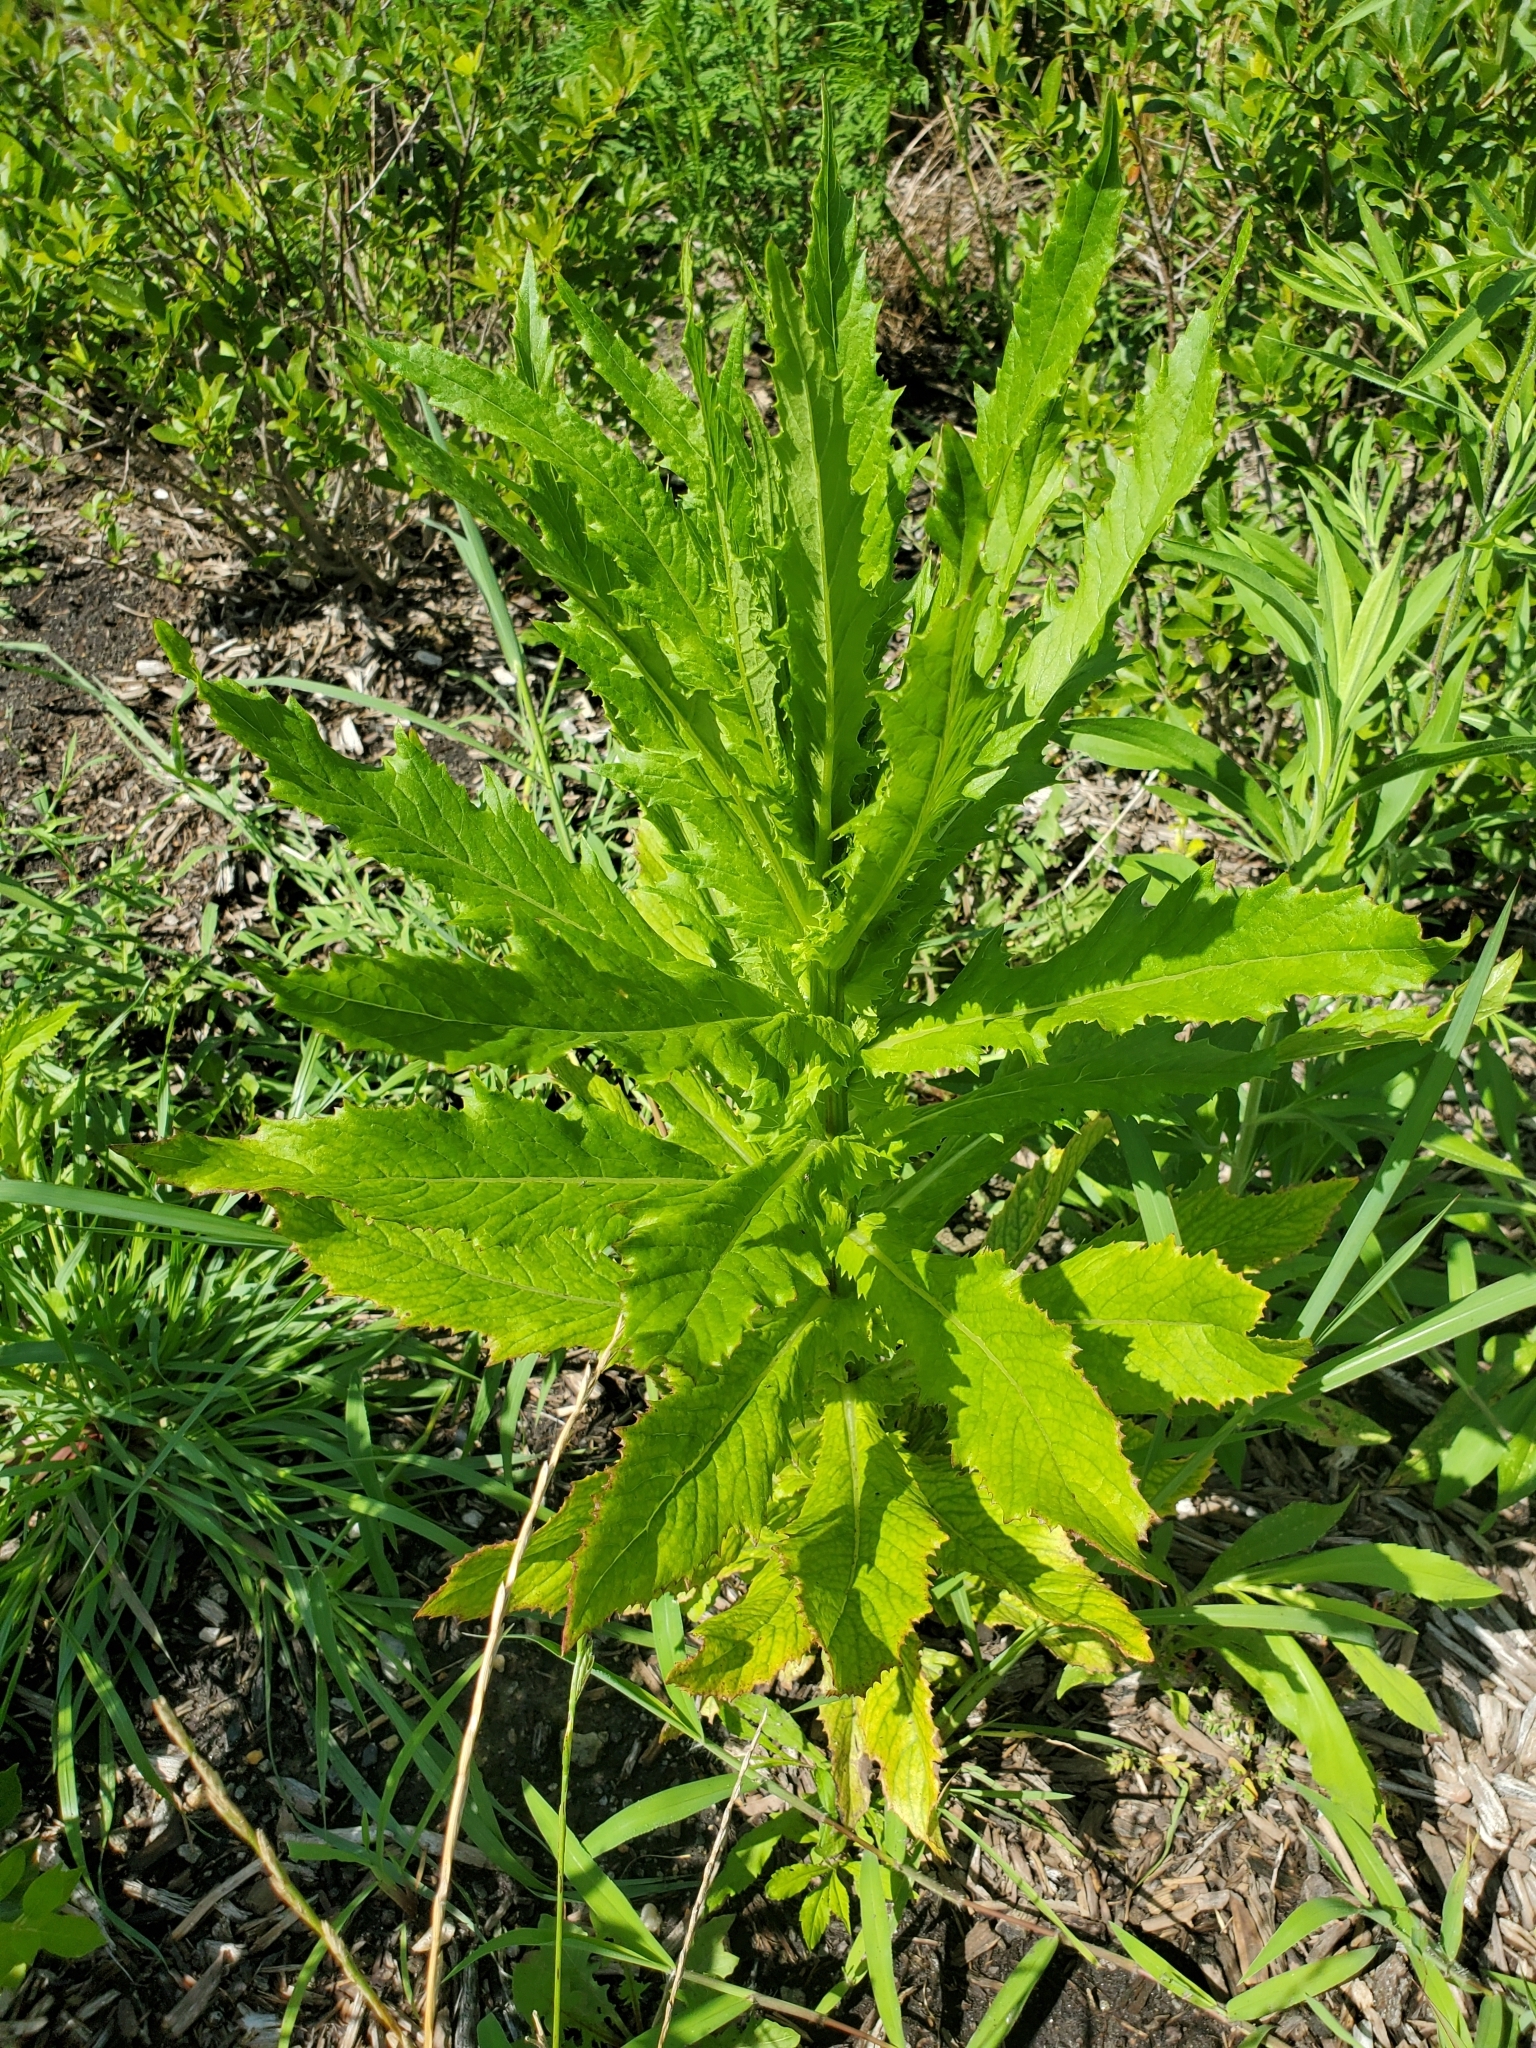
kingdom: Plantae
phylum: Tracheophyta
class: Magnoliopsida
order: Asterales
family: Asteraceae
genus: Erechtites
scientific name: Erechtites hieraciifolius
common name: American burnweed
